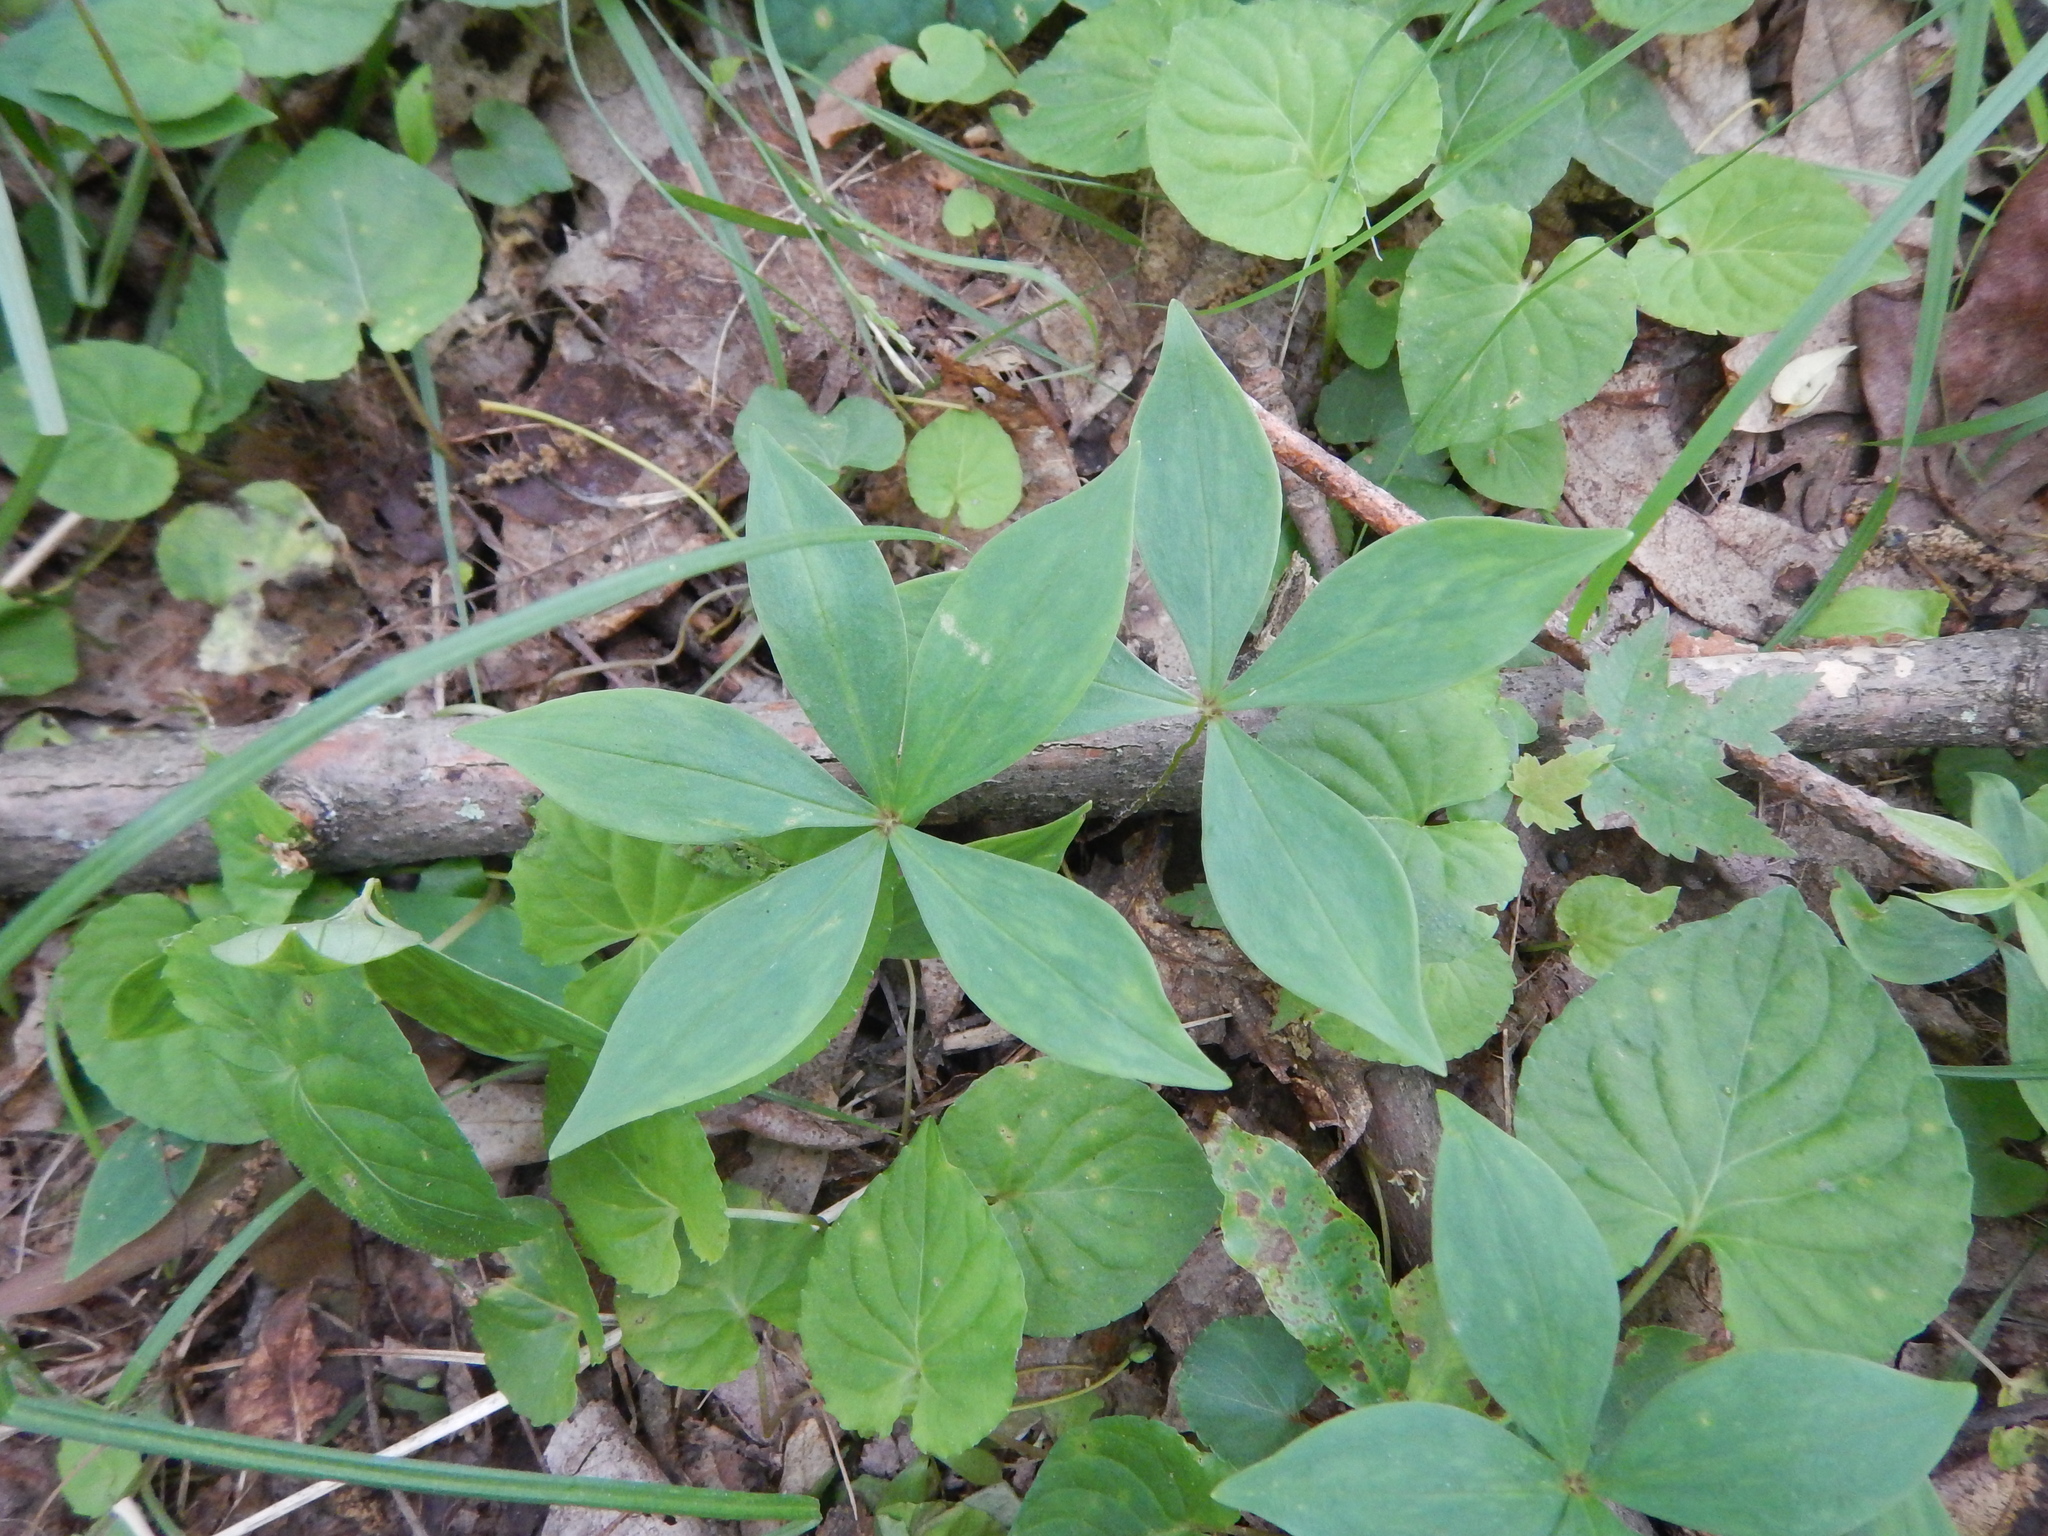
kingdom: Plantae
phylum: Tracheophyta
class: Liliopsida
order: Liliales
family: Liliaceae
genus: Medeola
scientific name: Medeola virginiana
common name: Indian cucumber-root
